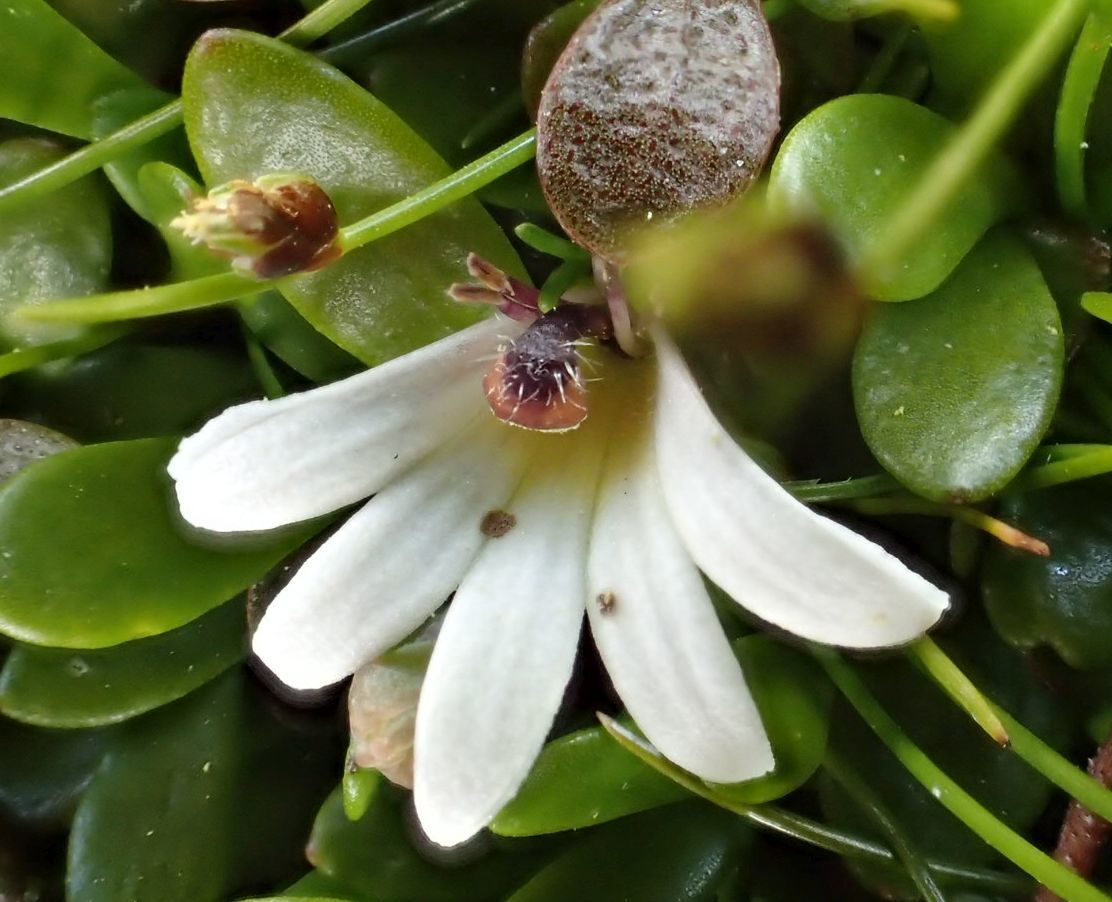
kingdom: Plantae
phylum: Tracheophyta
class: Magnoliopsida
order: Asterales
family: Goodeniaceae
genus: Goodenia
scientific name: Goodenia radicans
